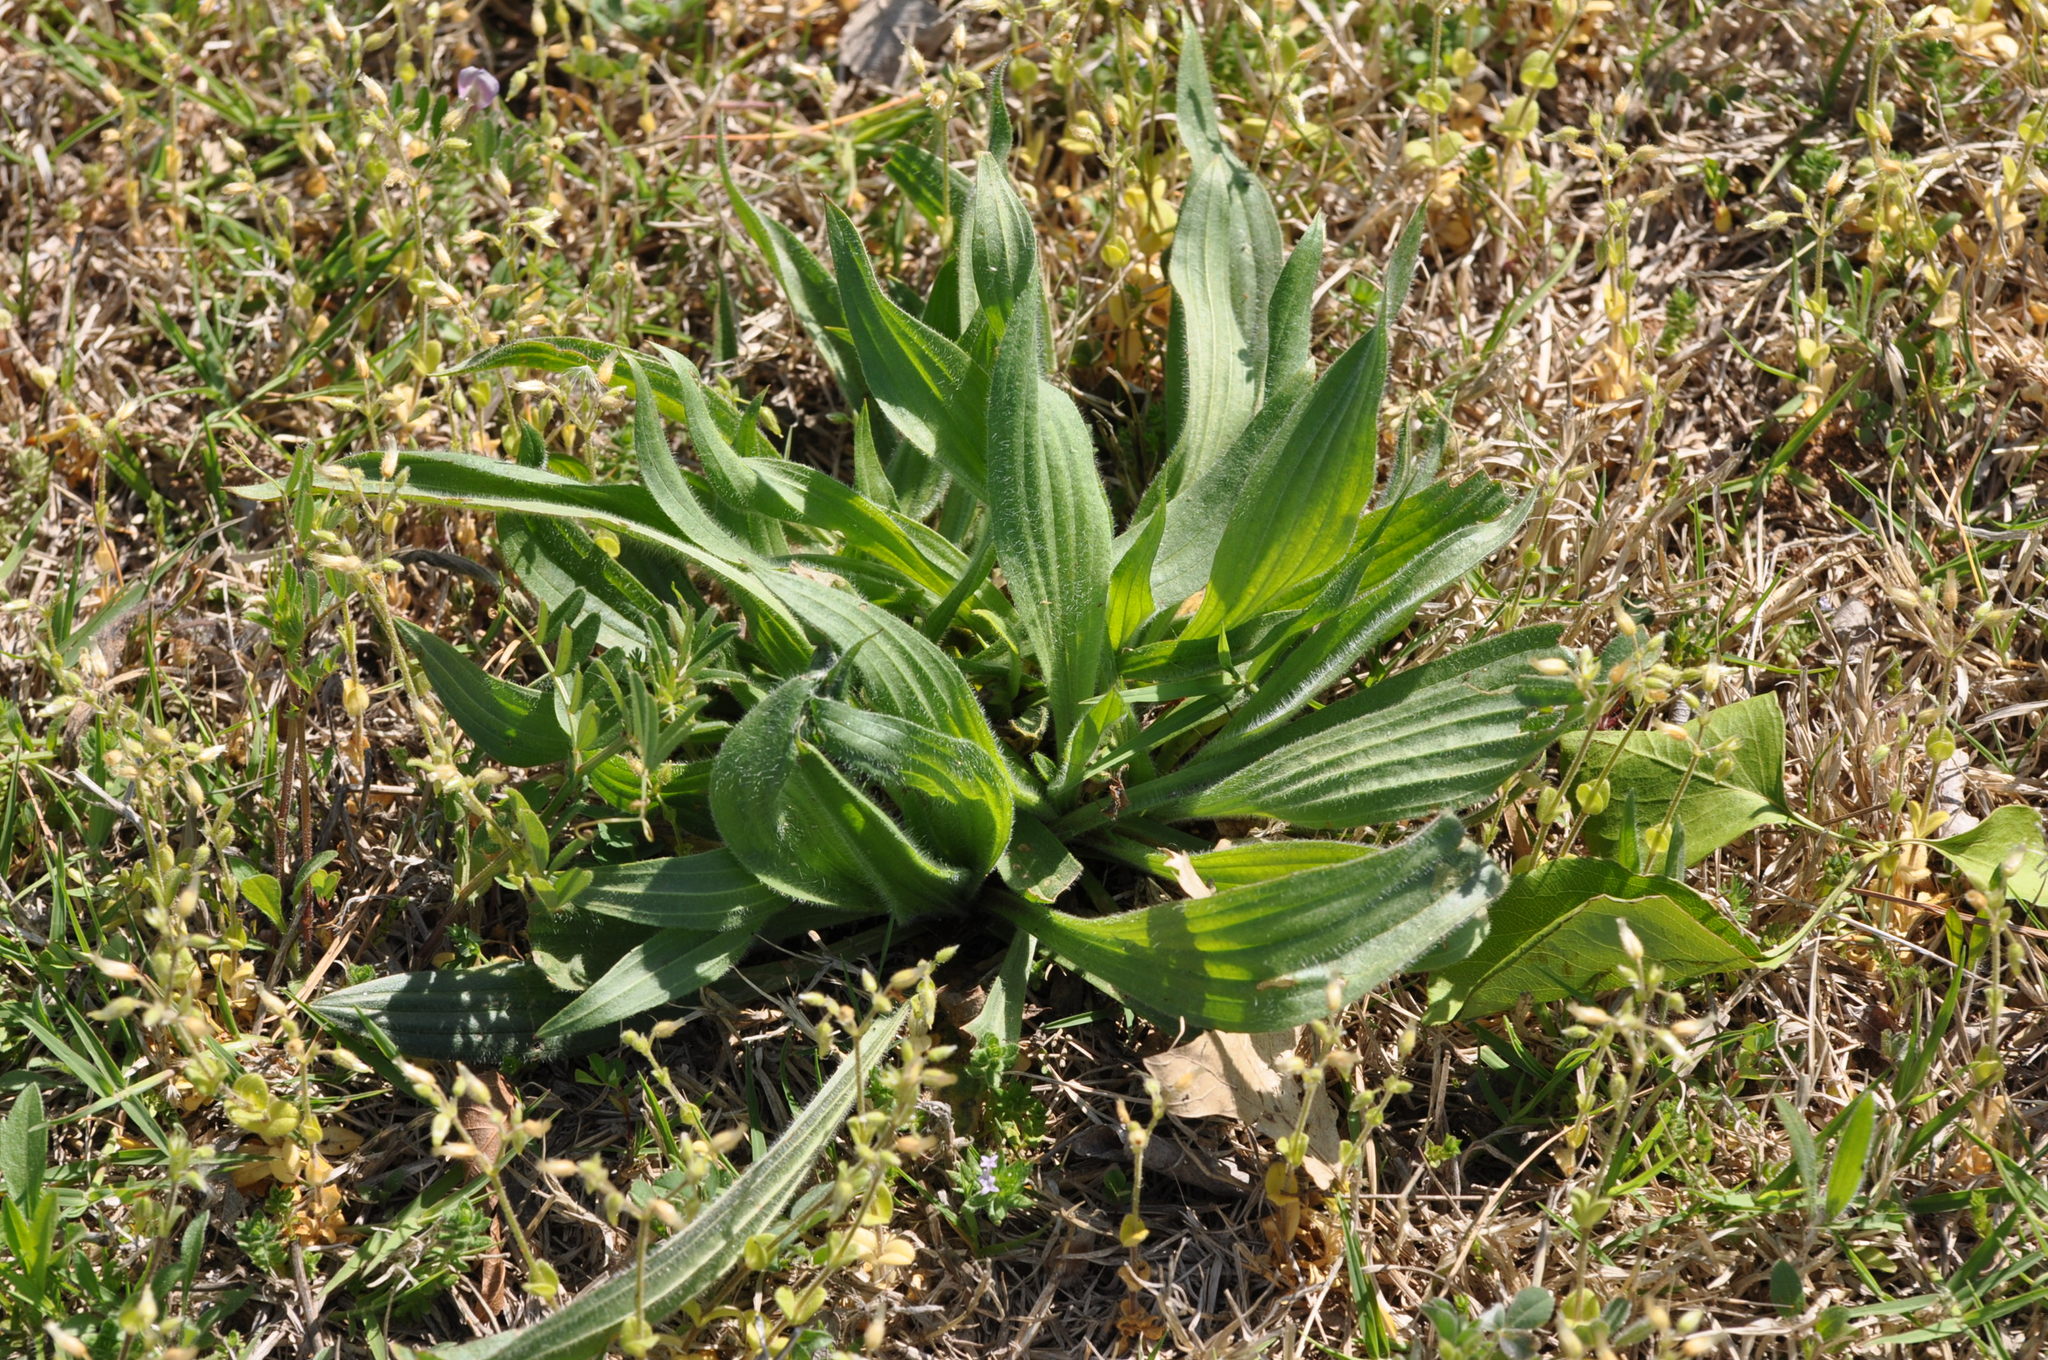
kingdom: Plantae
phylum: Tracheophyta
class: Magnoliopsida
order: Lamiales
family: Plantaginaceae
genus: Plantago
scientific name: Plantago lanceolata
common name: Ribwort plantain
